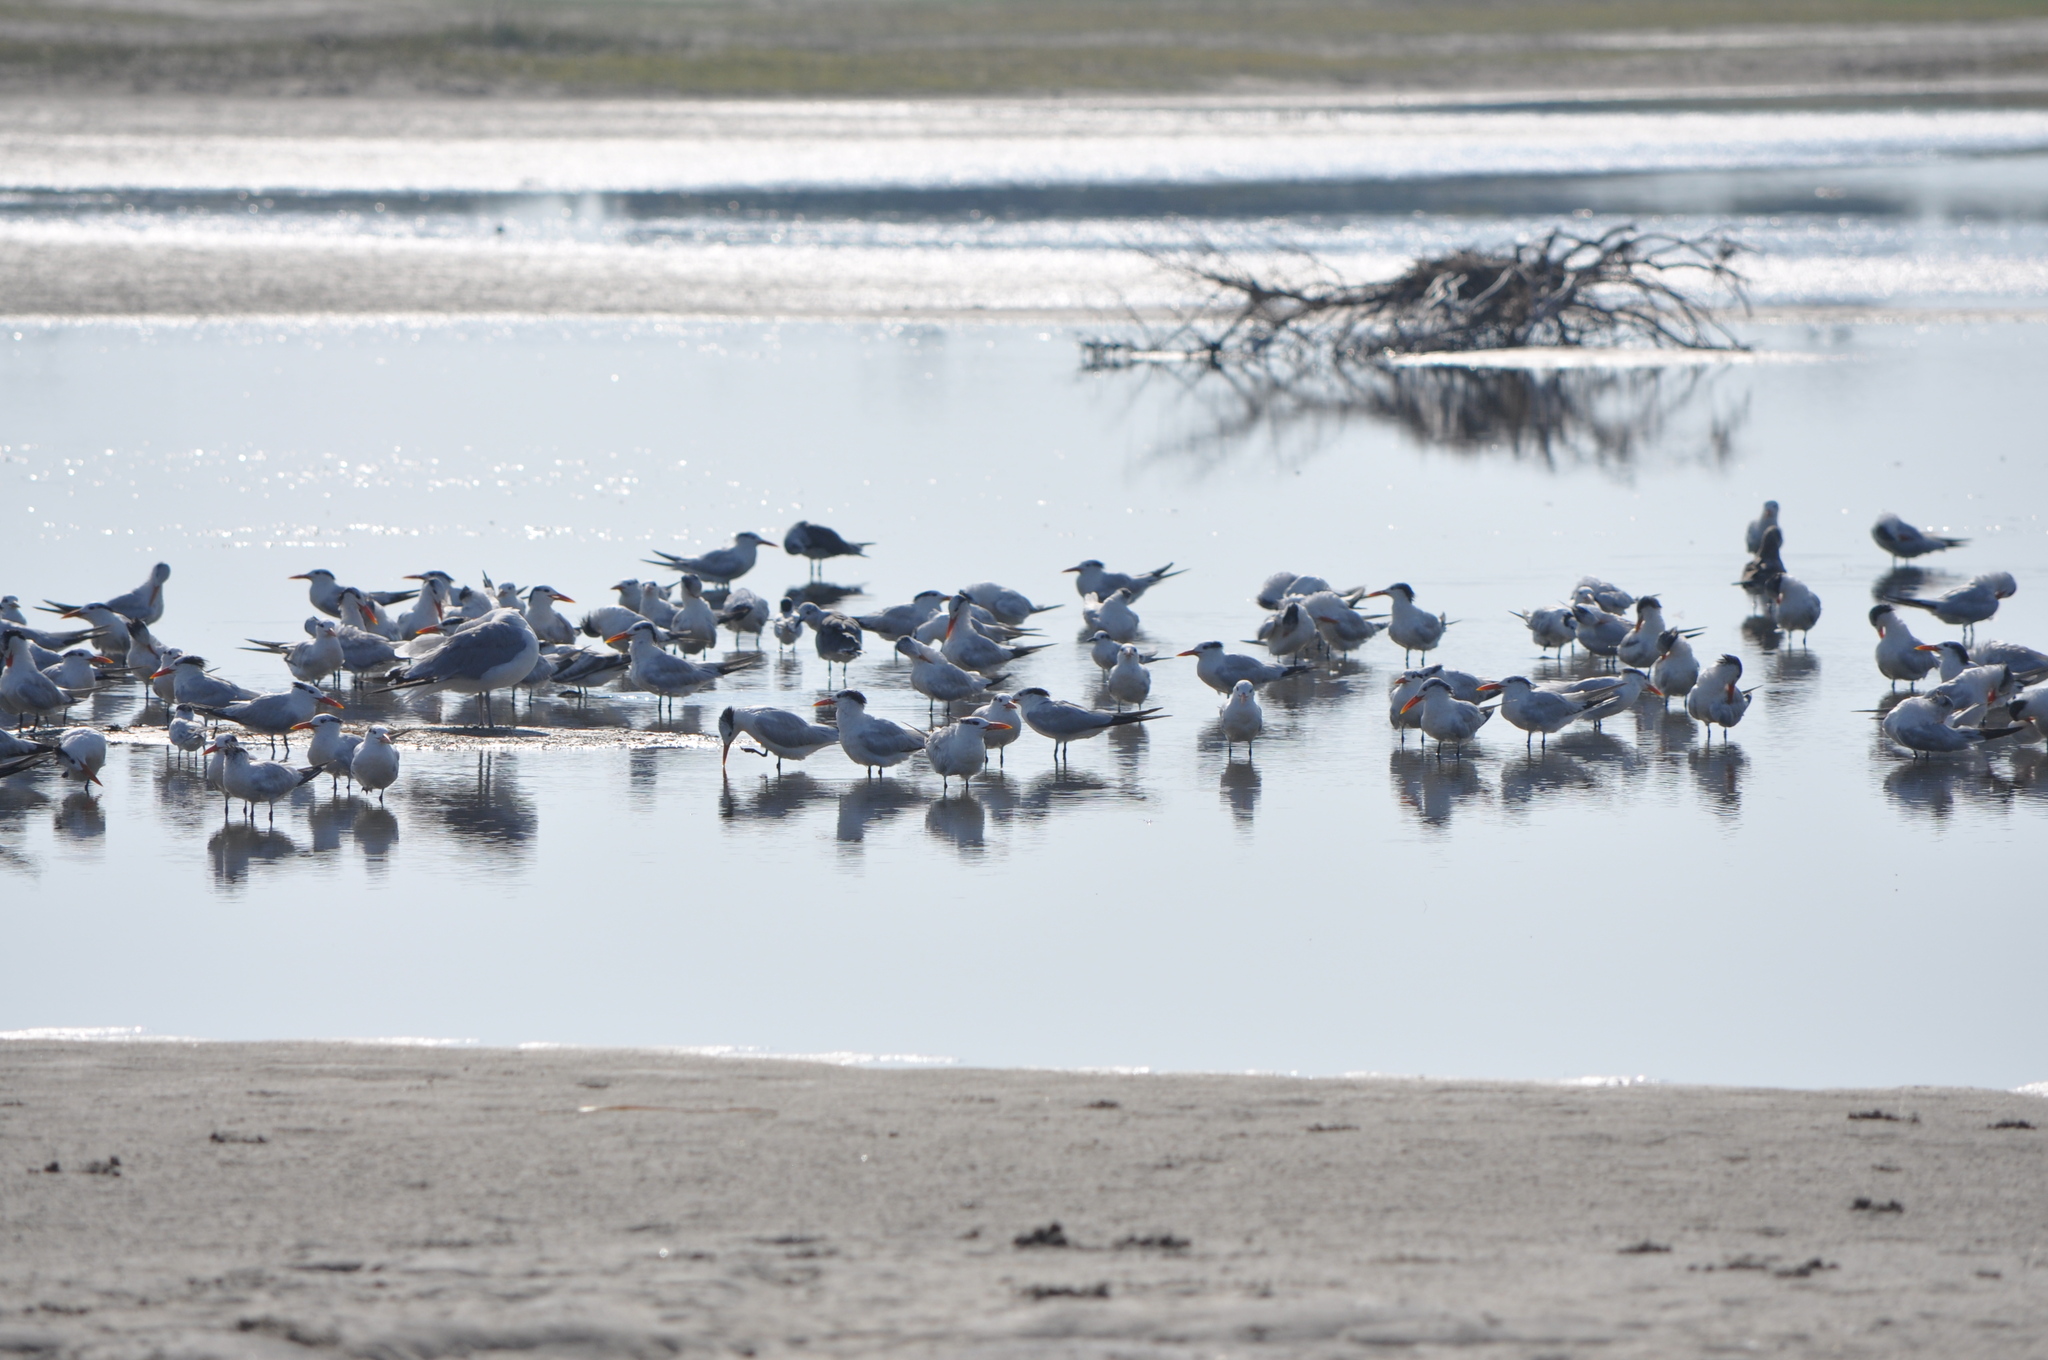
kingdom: Animalia
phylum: Chordata
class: Aves
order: Charadriiformes
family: Laridae
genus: Thalasseus
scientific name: Thalasseus maximus
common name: Royal tern
